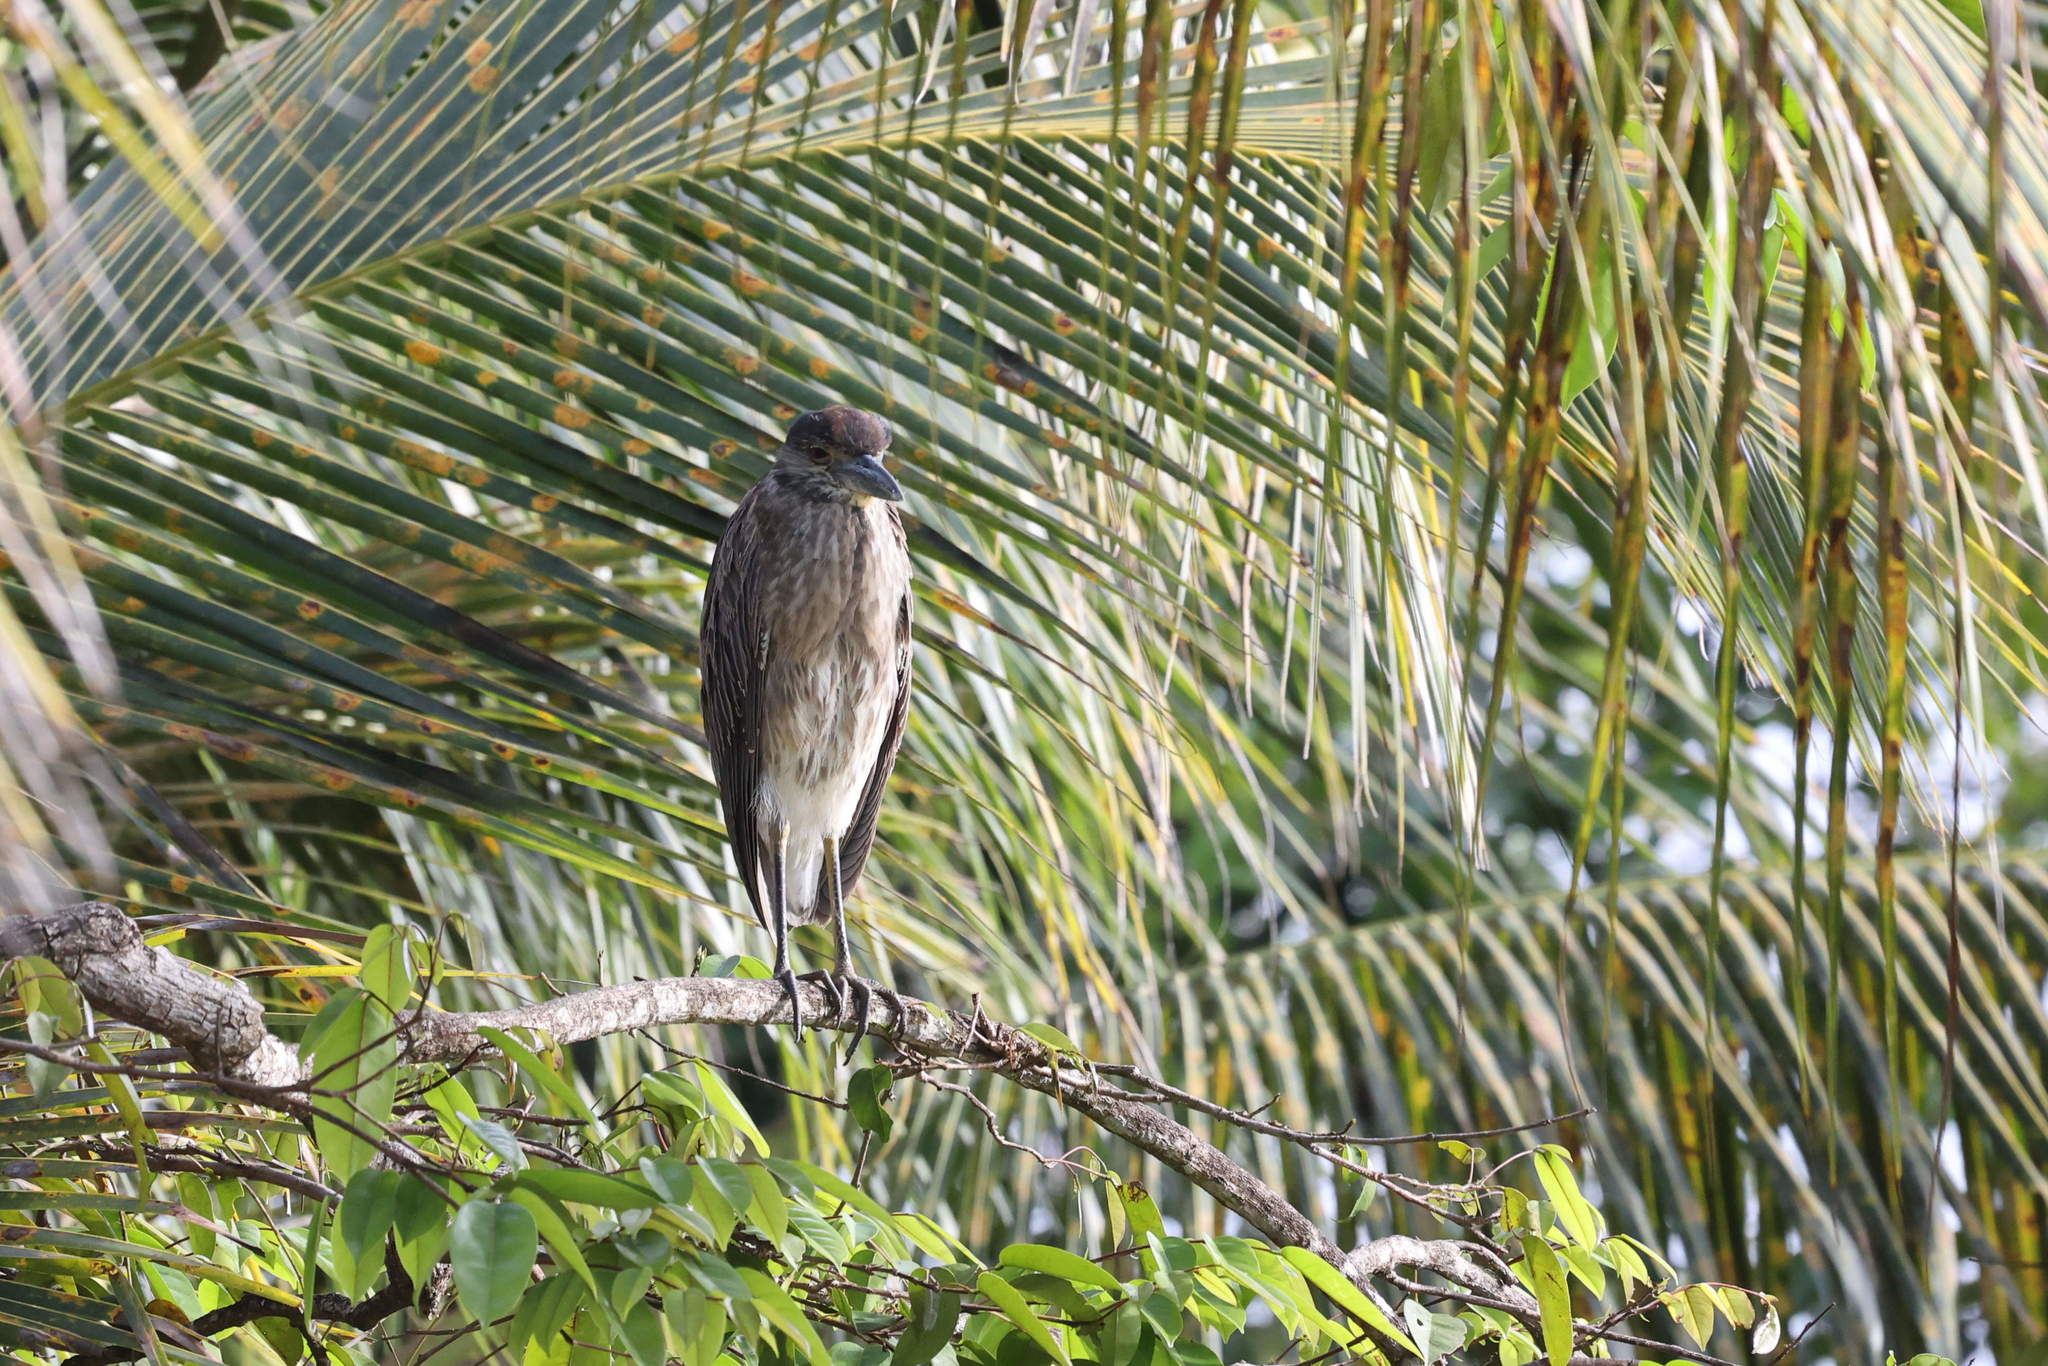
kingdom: Animalia
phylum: Chordata
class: Aves
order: Pelecaniformes
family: Ardeidae
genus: Nyctanassa
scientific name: Nyctanassa violacea
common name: Yellow-crowned night heron
